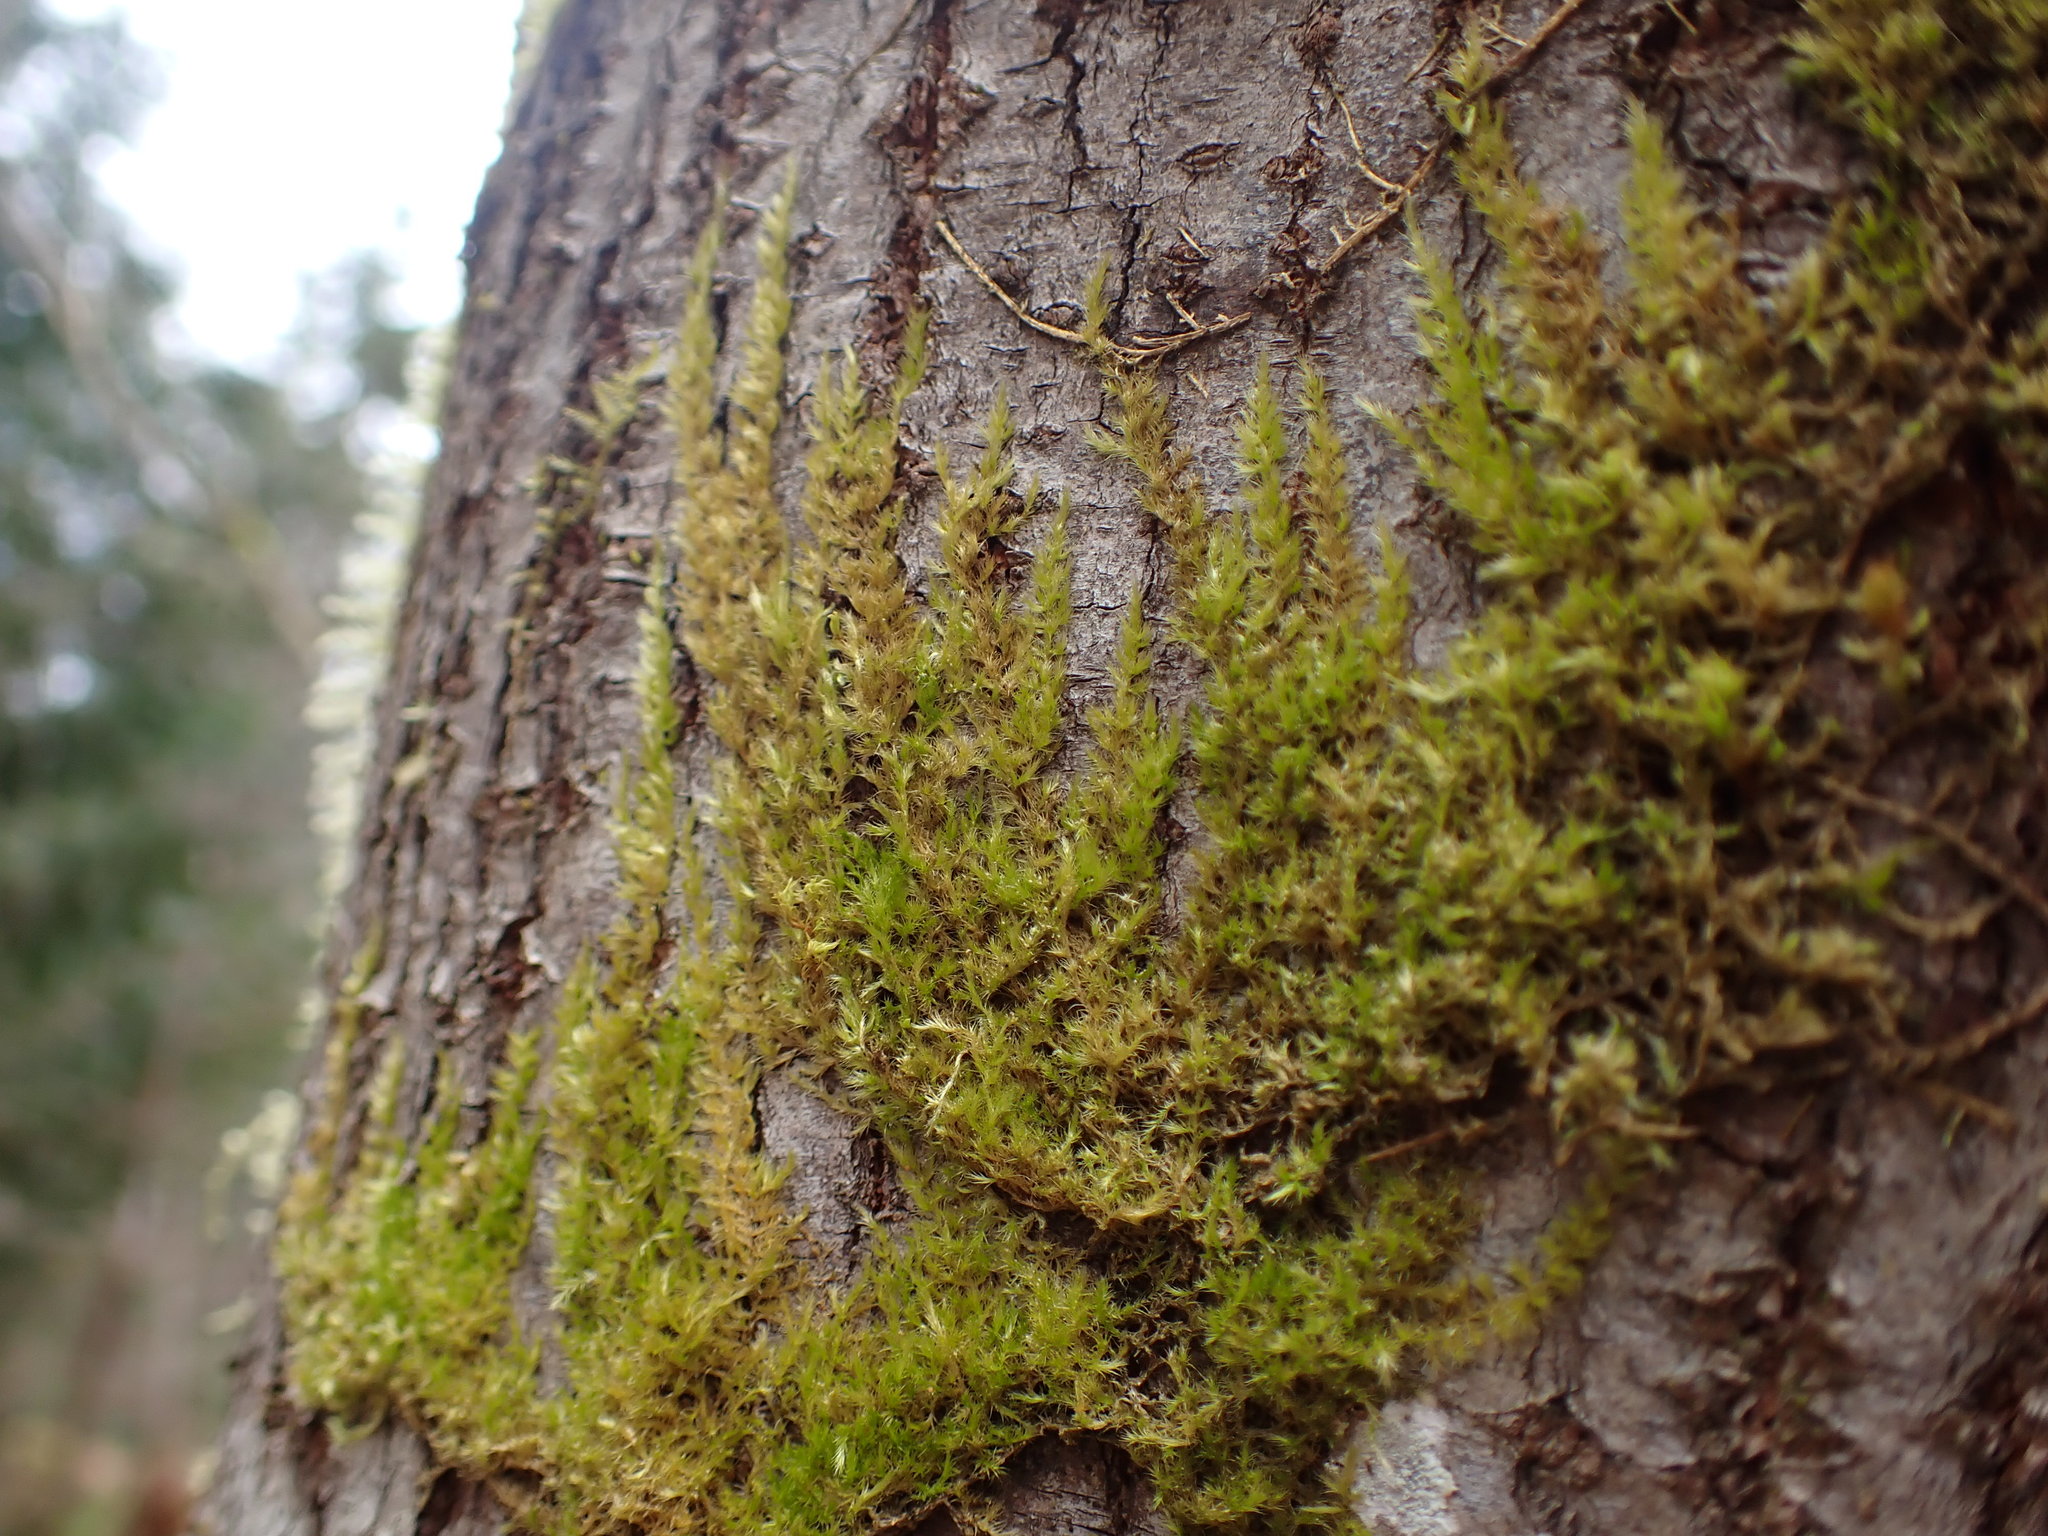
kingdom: Plantae
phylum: Bryophyta
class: Bryopsida
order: Hypnales
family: Brachytheciaceae
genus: Homalothecium
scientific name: Homalothecium nuttallii
